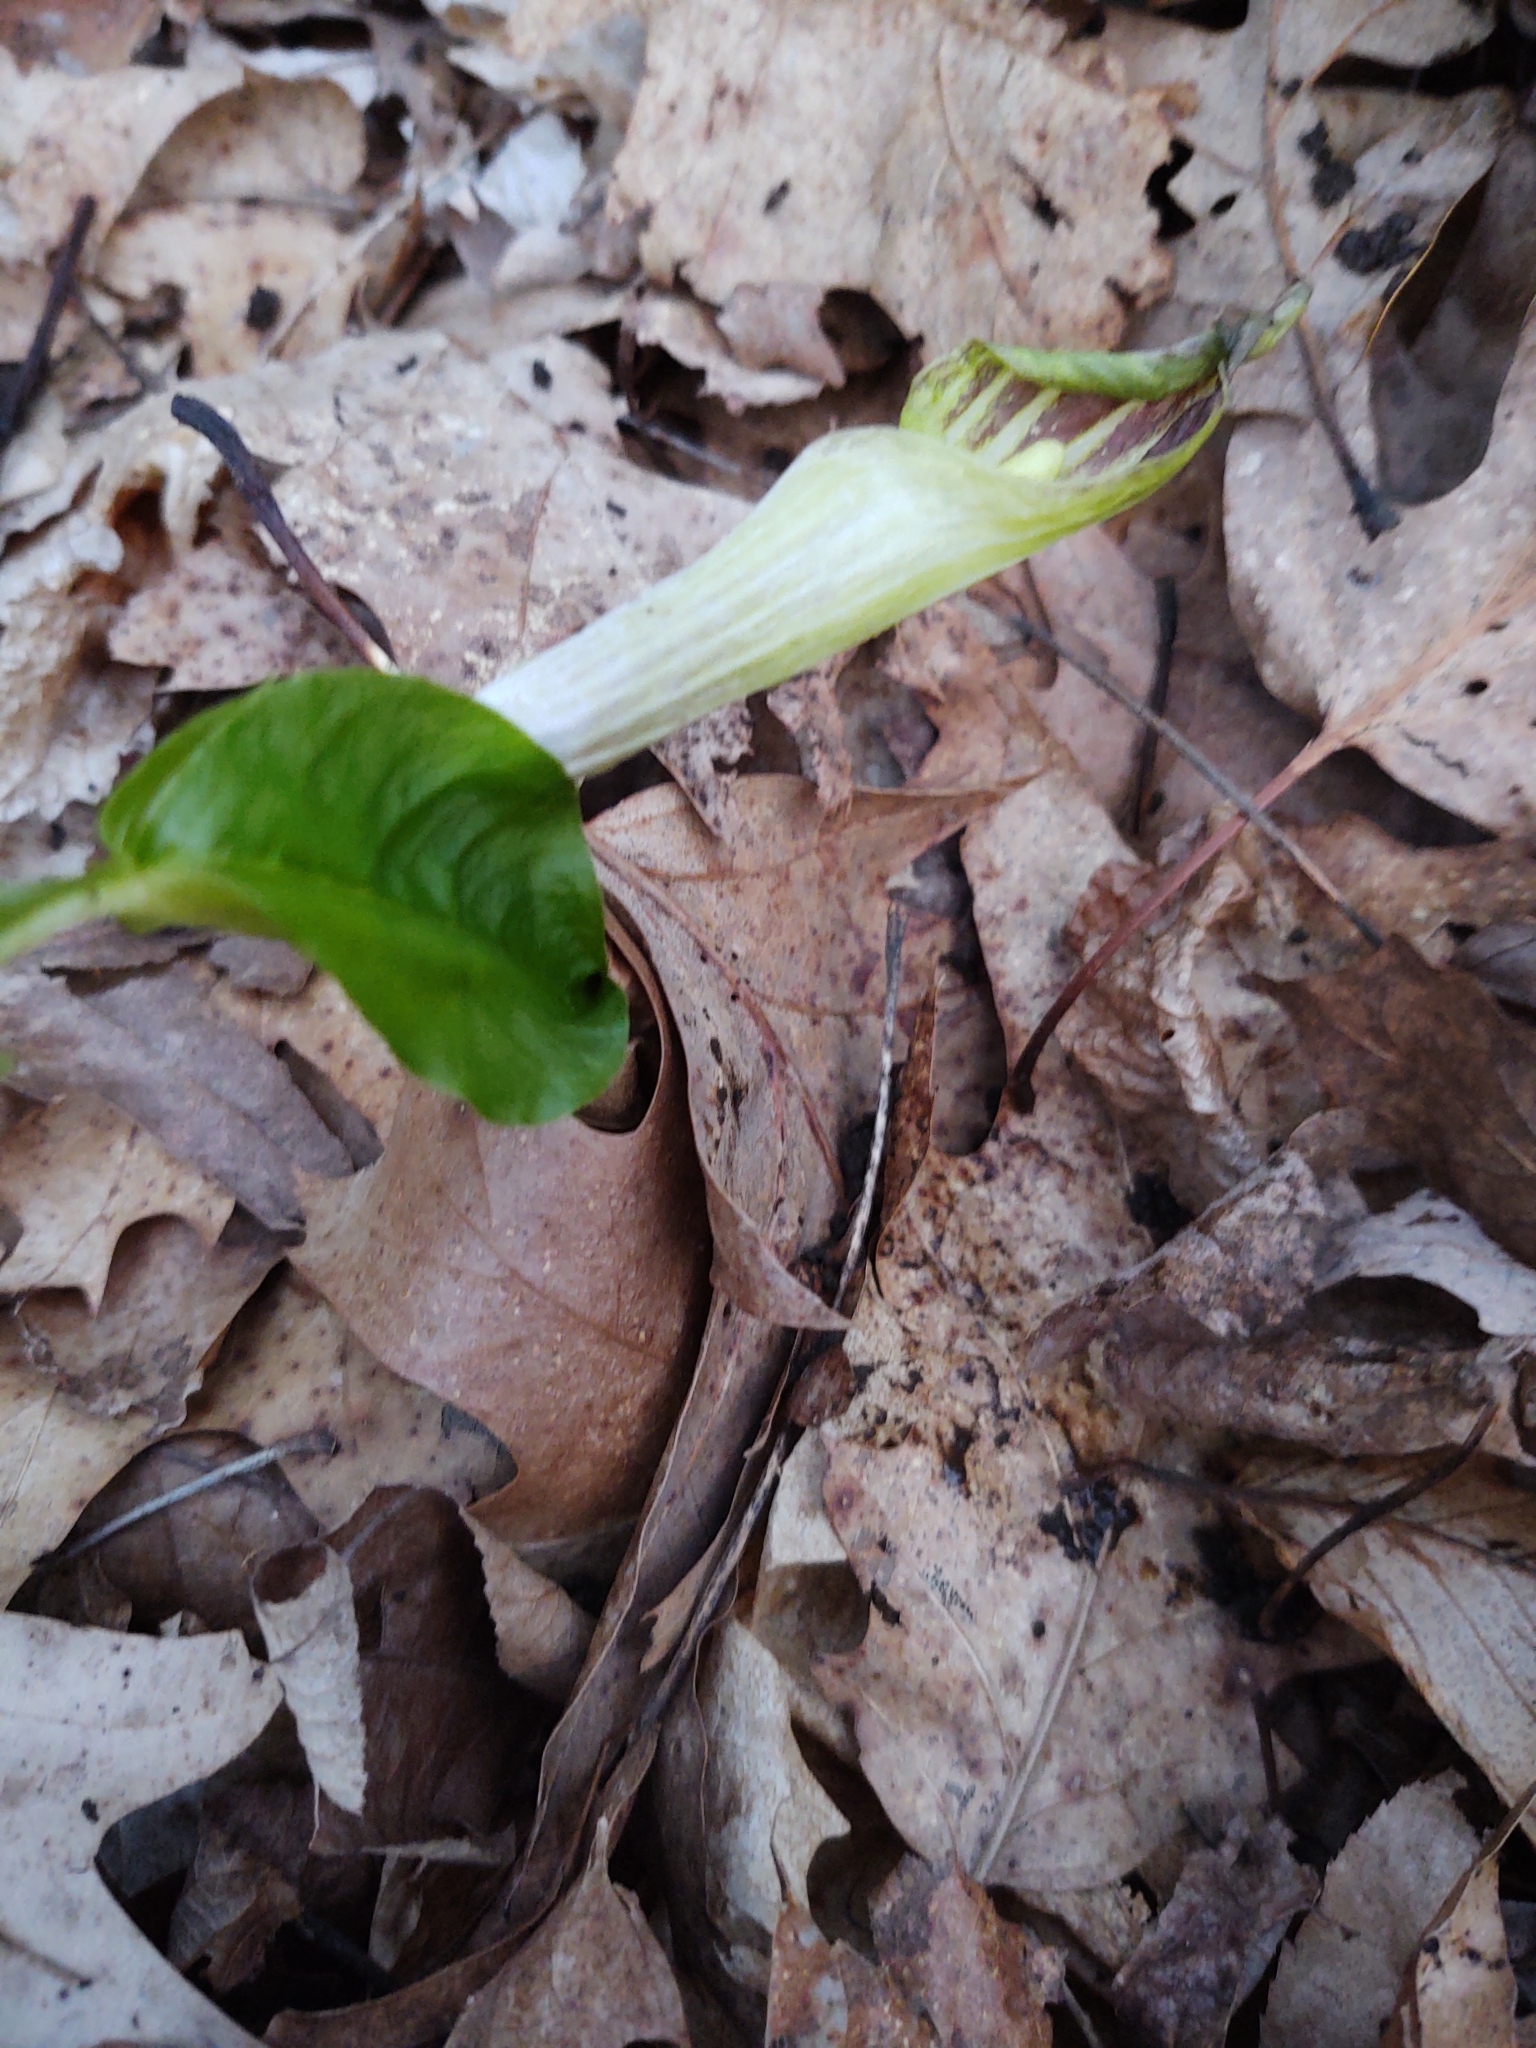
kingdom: Plantae
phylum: Tracheophyta
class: Liliopsida
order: Alismatales
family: Araceae
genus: Arisaema
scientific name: Arisaema triphyllum
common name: Jack-in-the-pulpit
